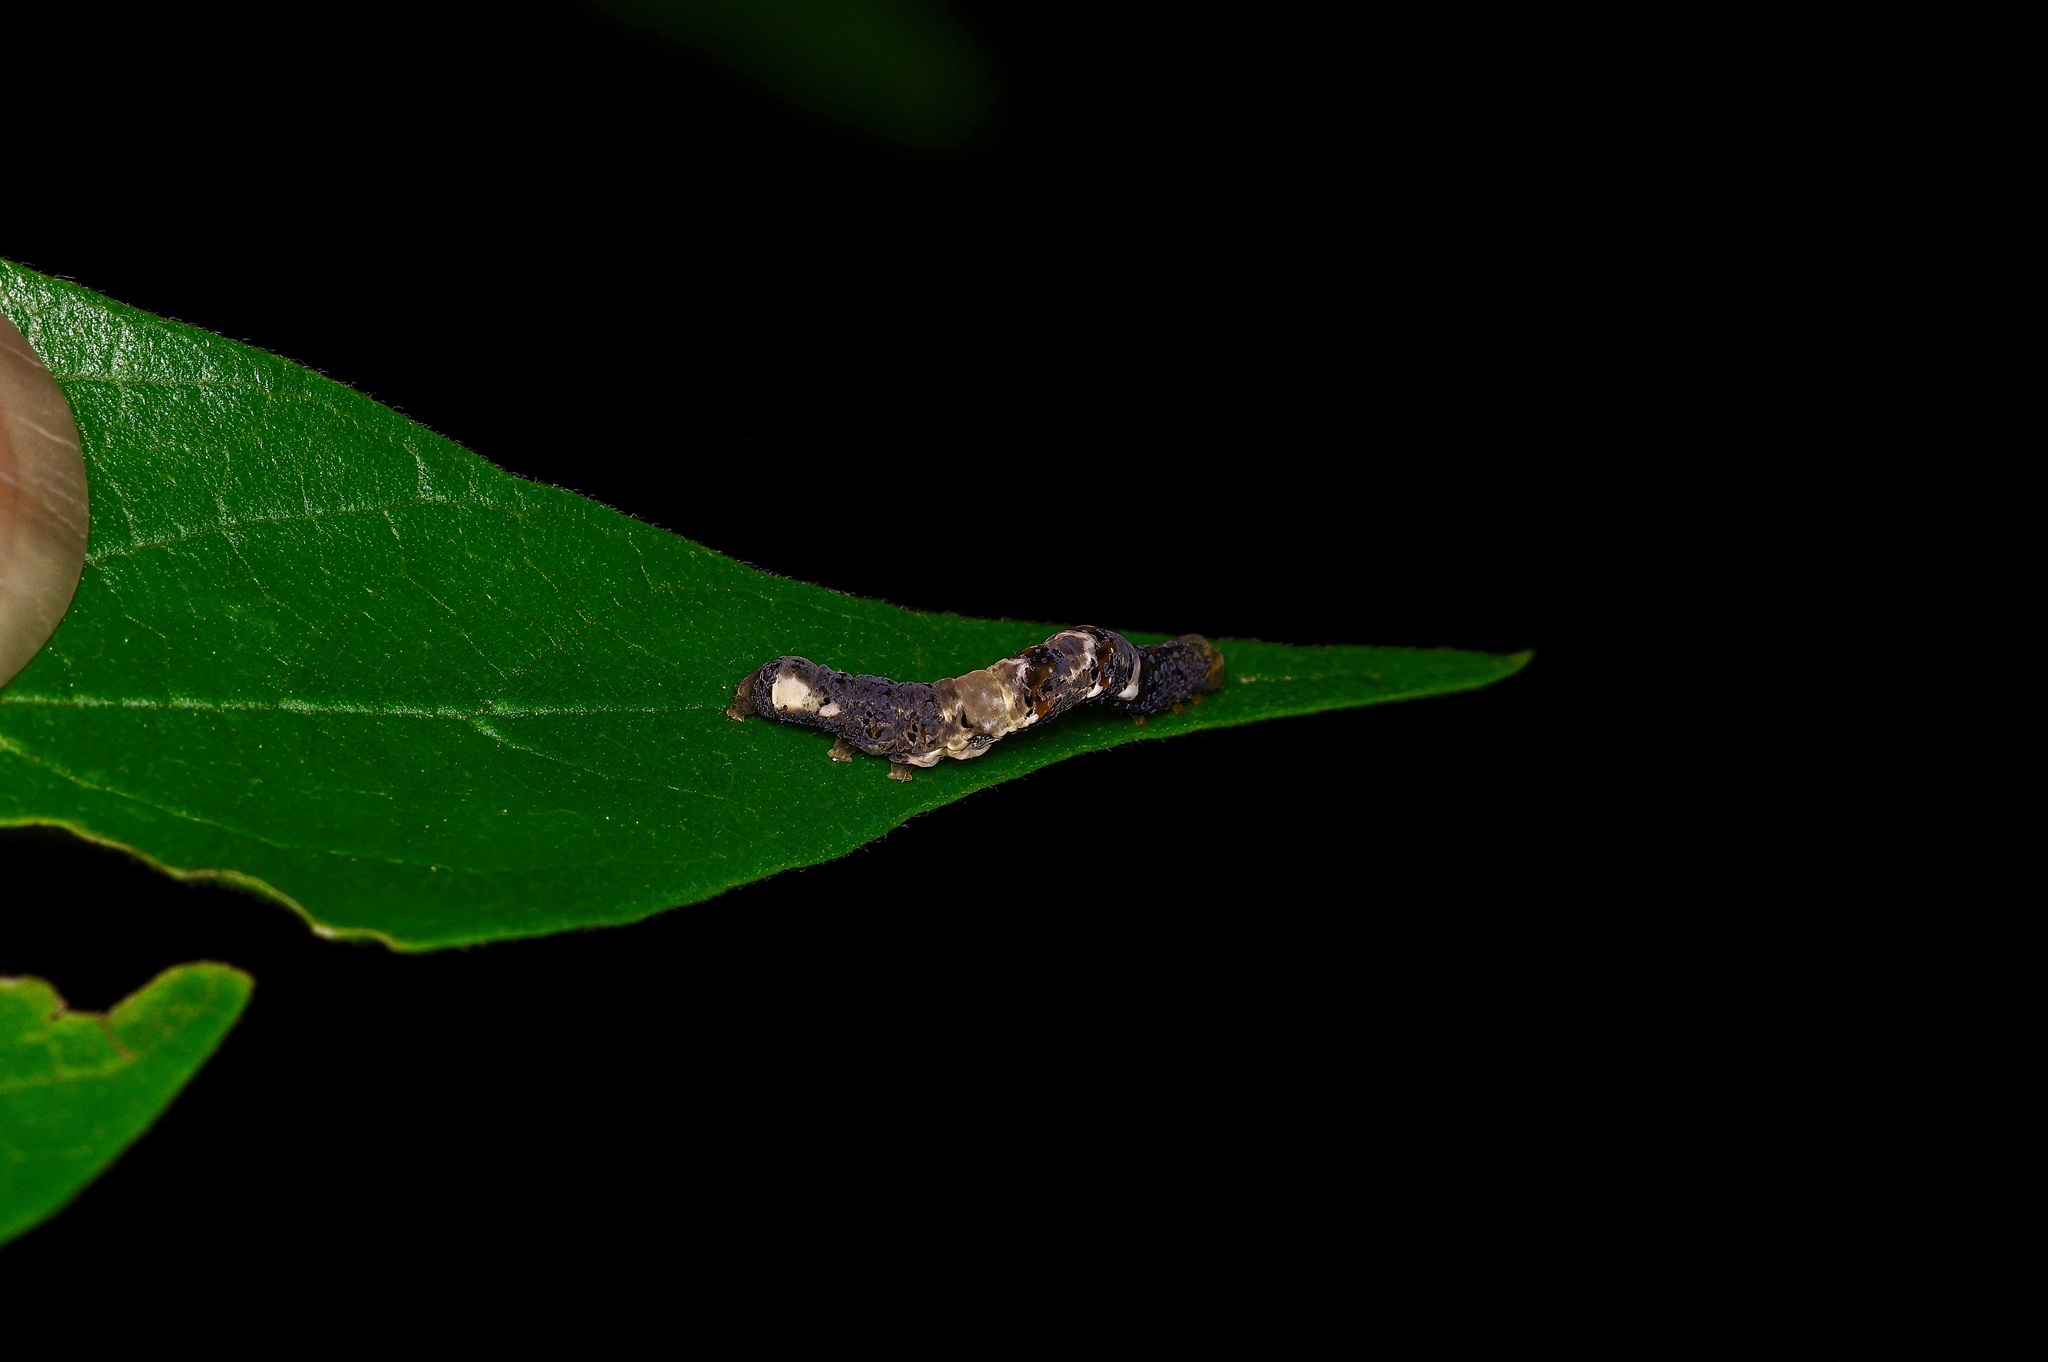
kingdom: Animalia
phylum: Arthropoda
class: Insecta
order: Lepidoptera
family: Erebidae
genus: Plusiodonta
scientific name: Plusiodonta compressipalpis
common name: Moonseed moth
